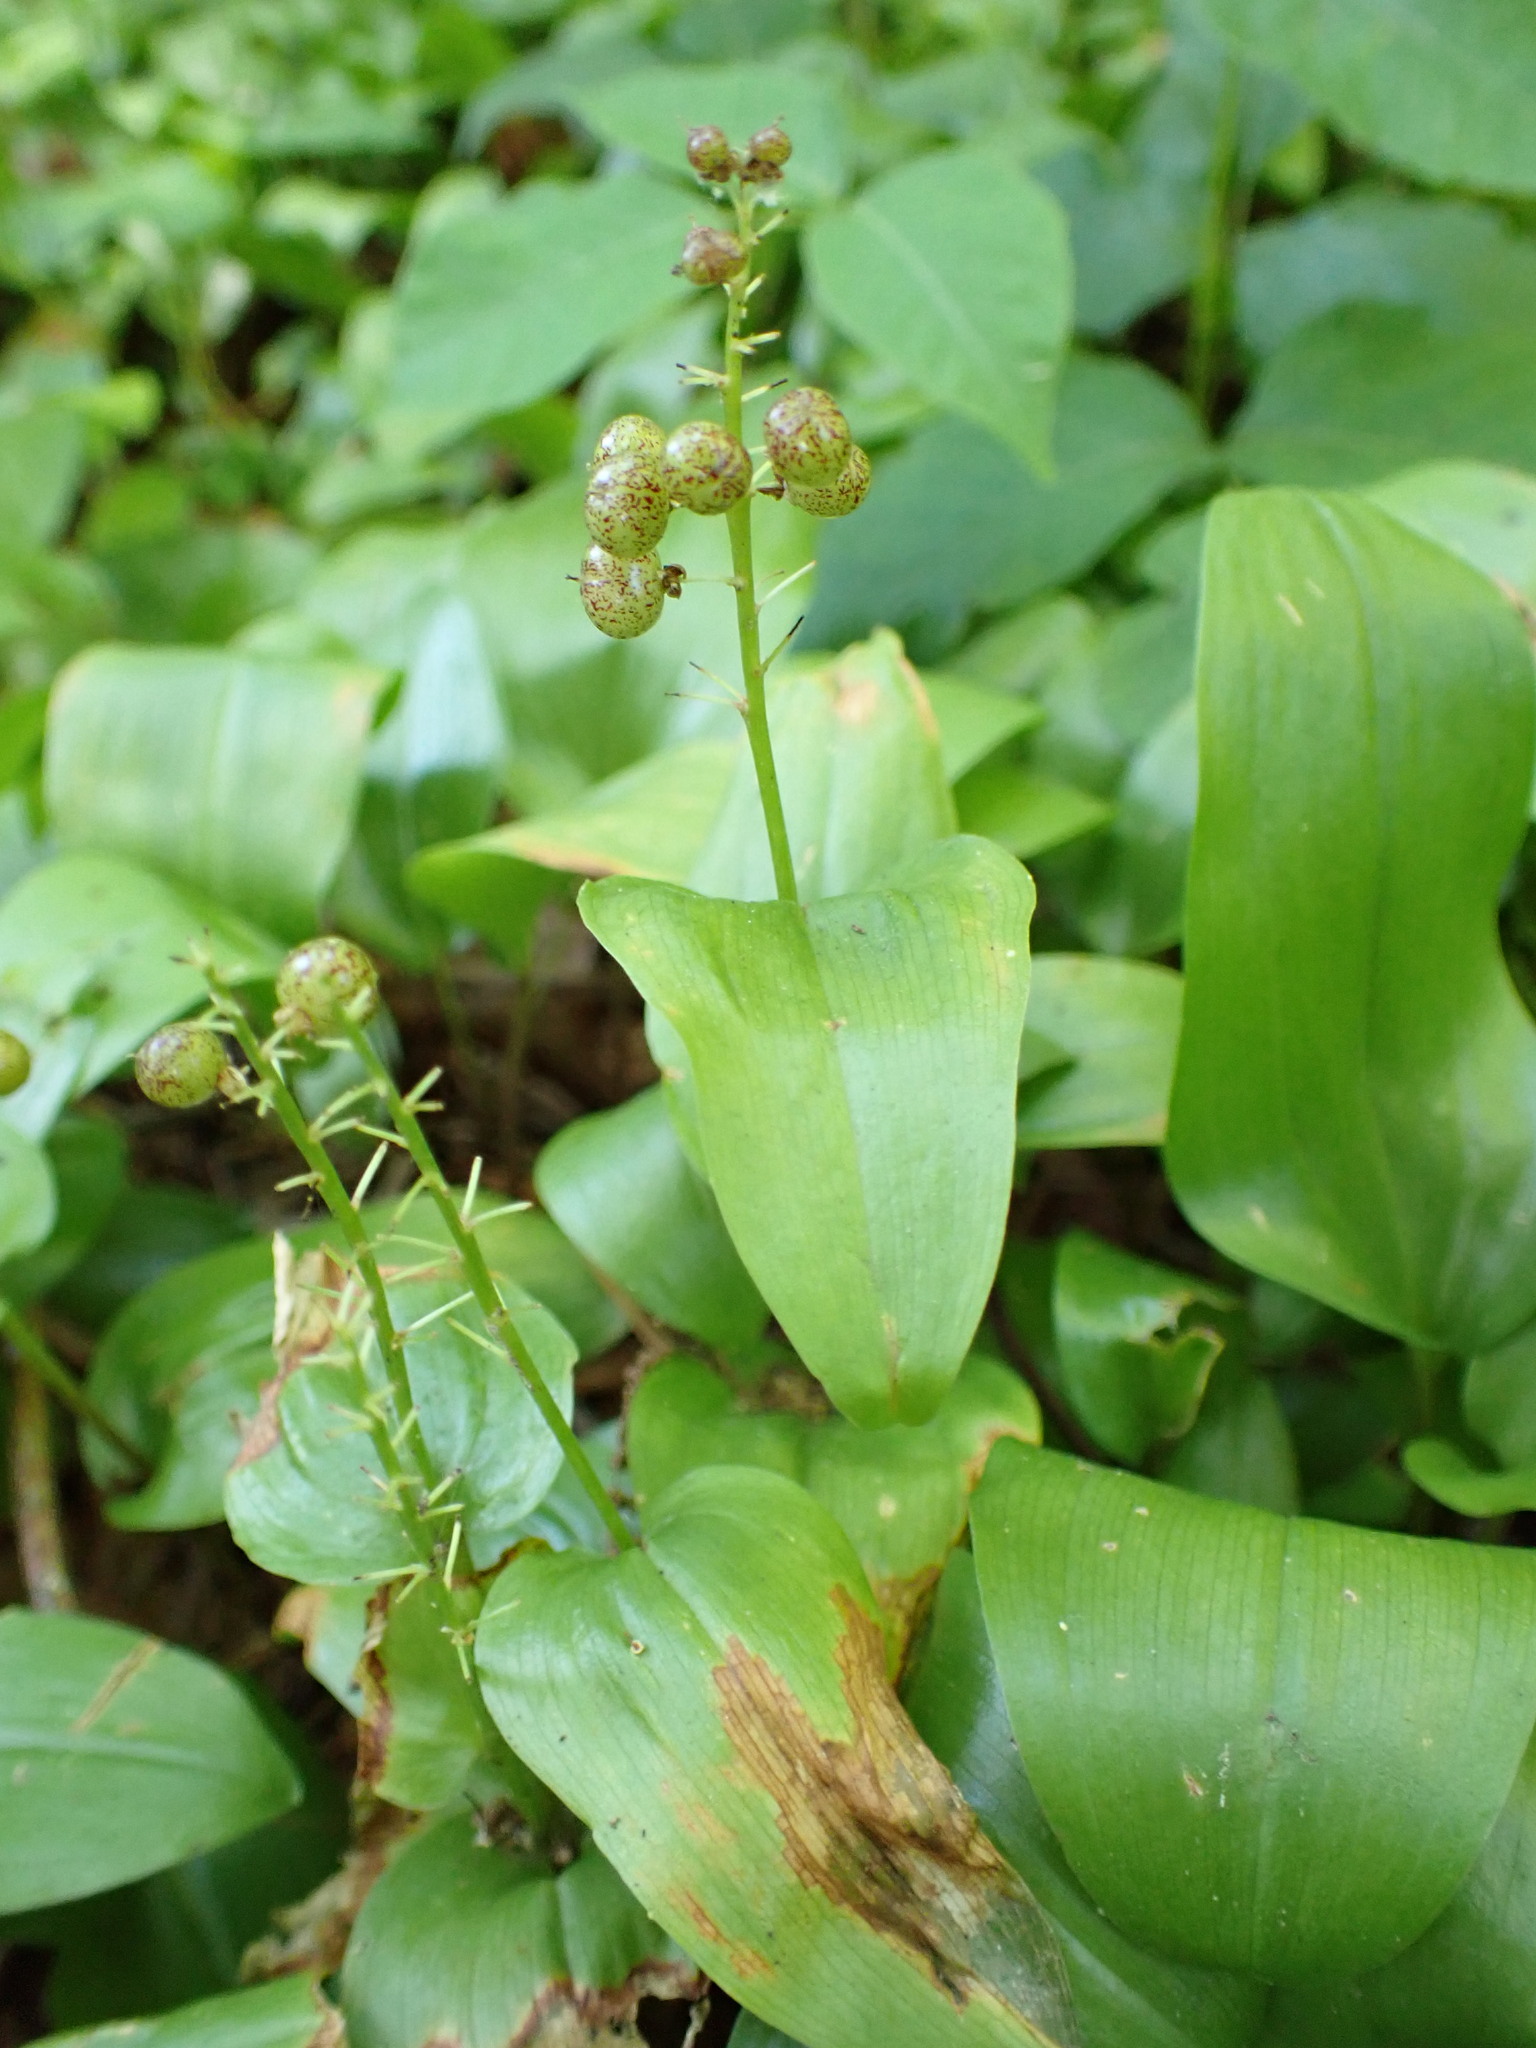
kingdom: Plantae
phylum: Tracheophyta
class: Liliopsida
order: Asparagales
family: Asparagaceae
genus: Maianthemum
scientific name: Maianthemum canadense
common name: False lily-of-the-valley
